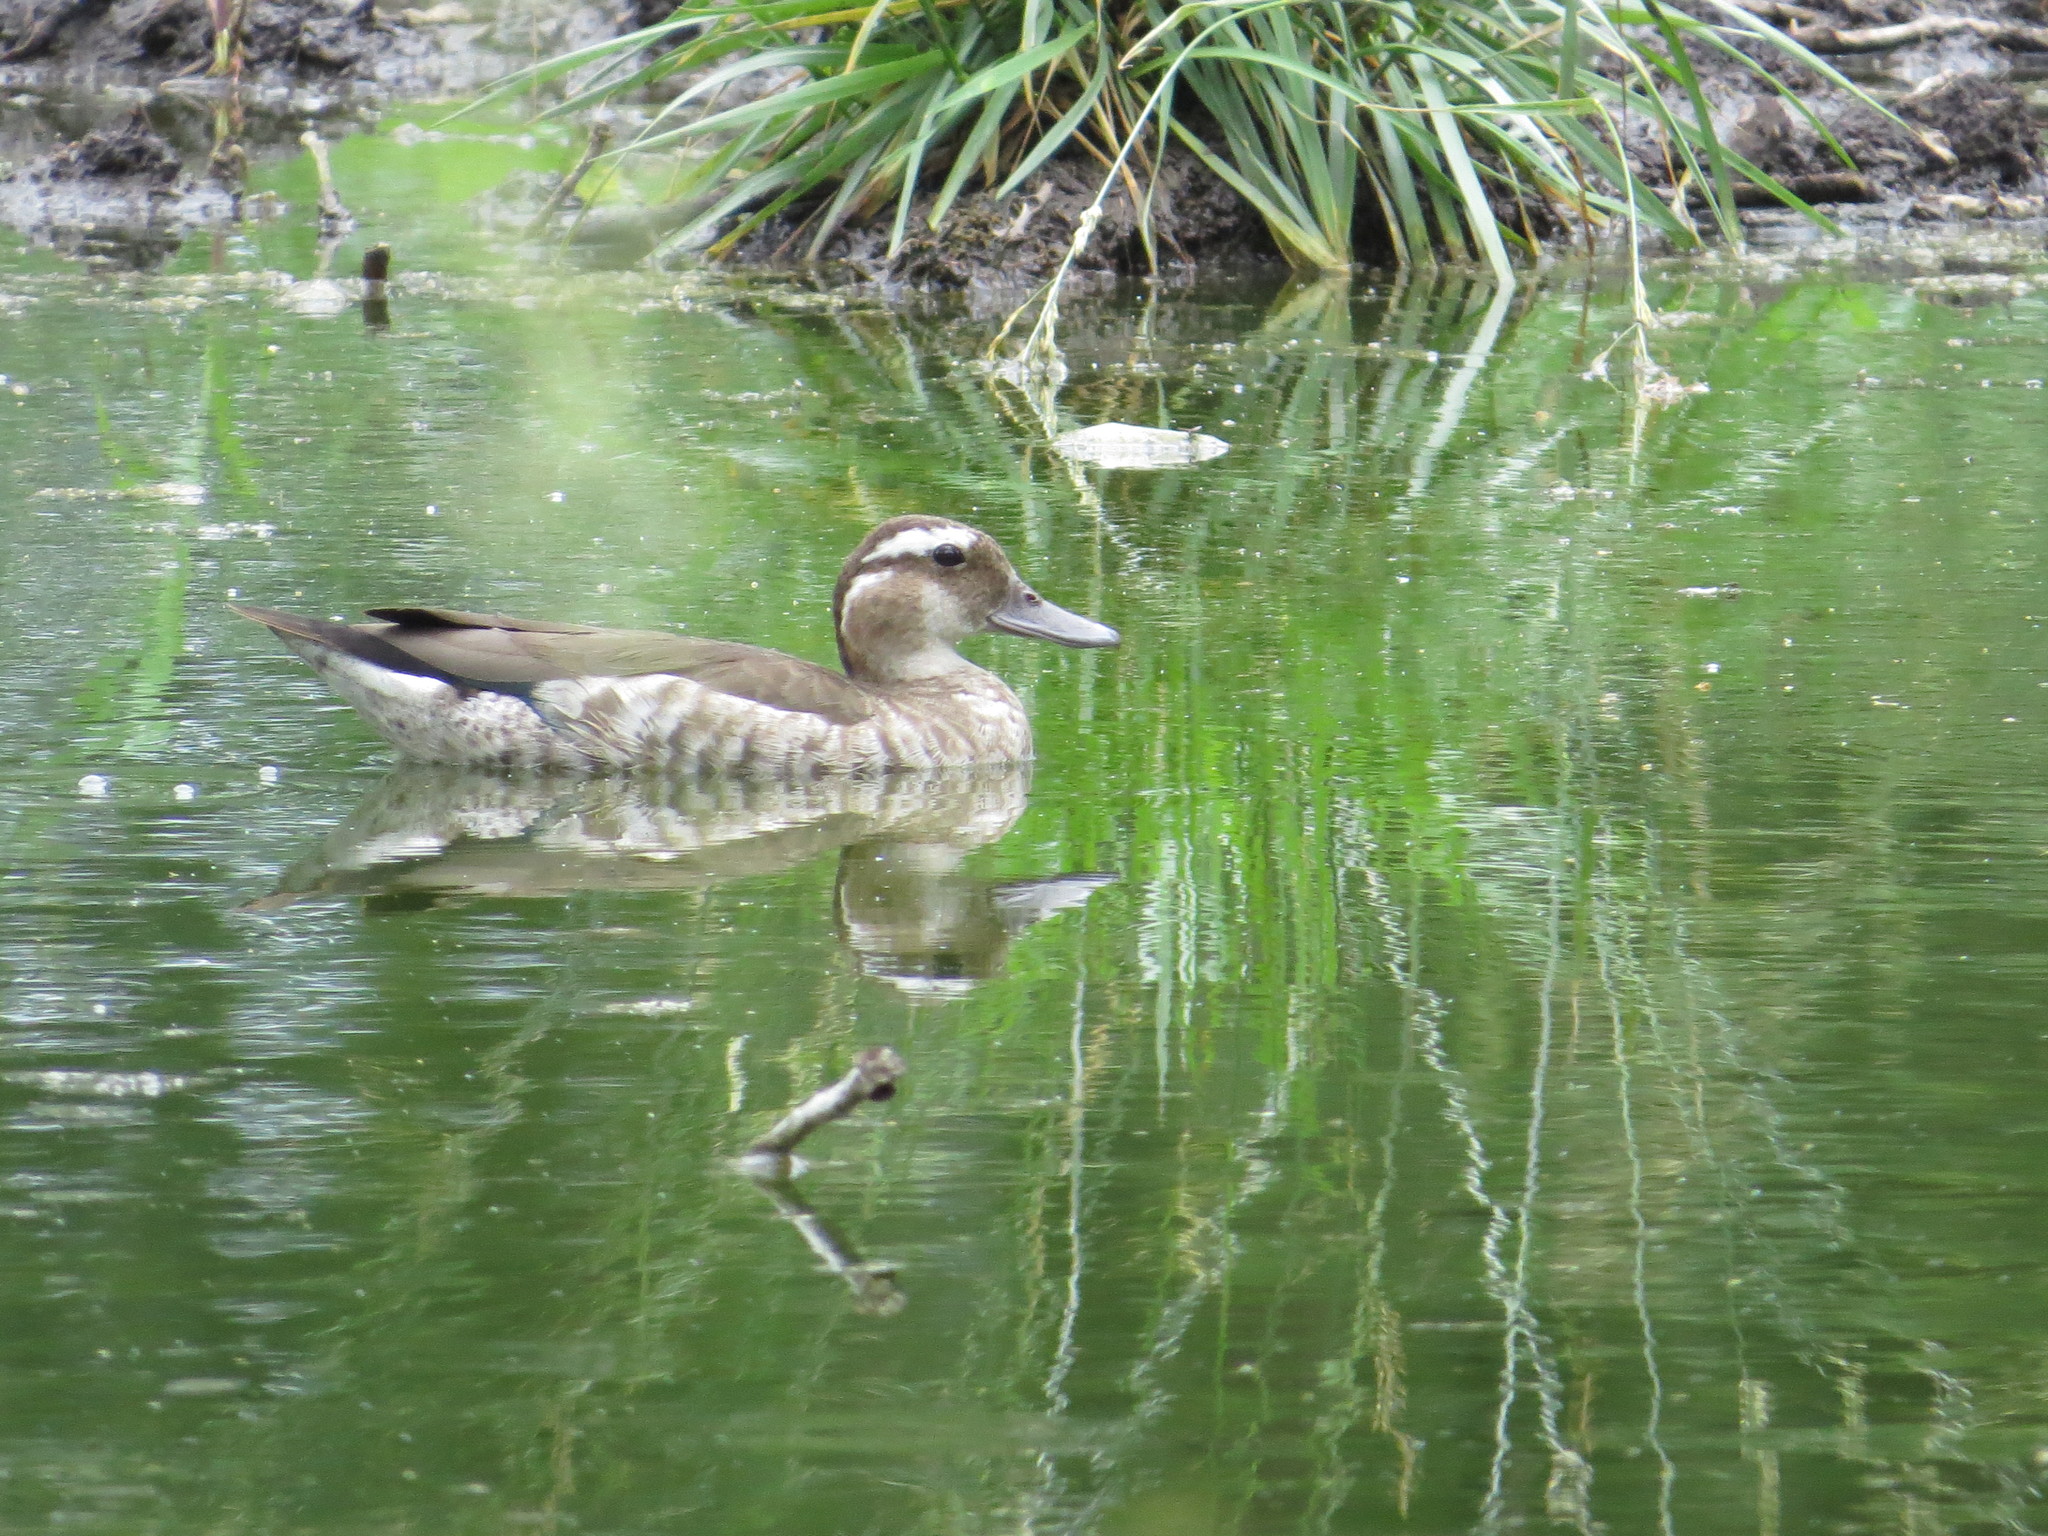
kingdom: Animalia
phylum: Chordata
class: Aves
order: Anseriformes
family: Anatidae
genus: Callonetta
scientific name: Callonetta leucophrys
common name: Ringed teal
